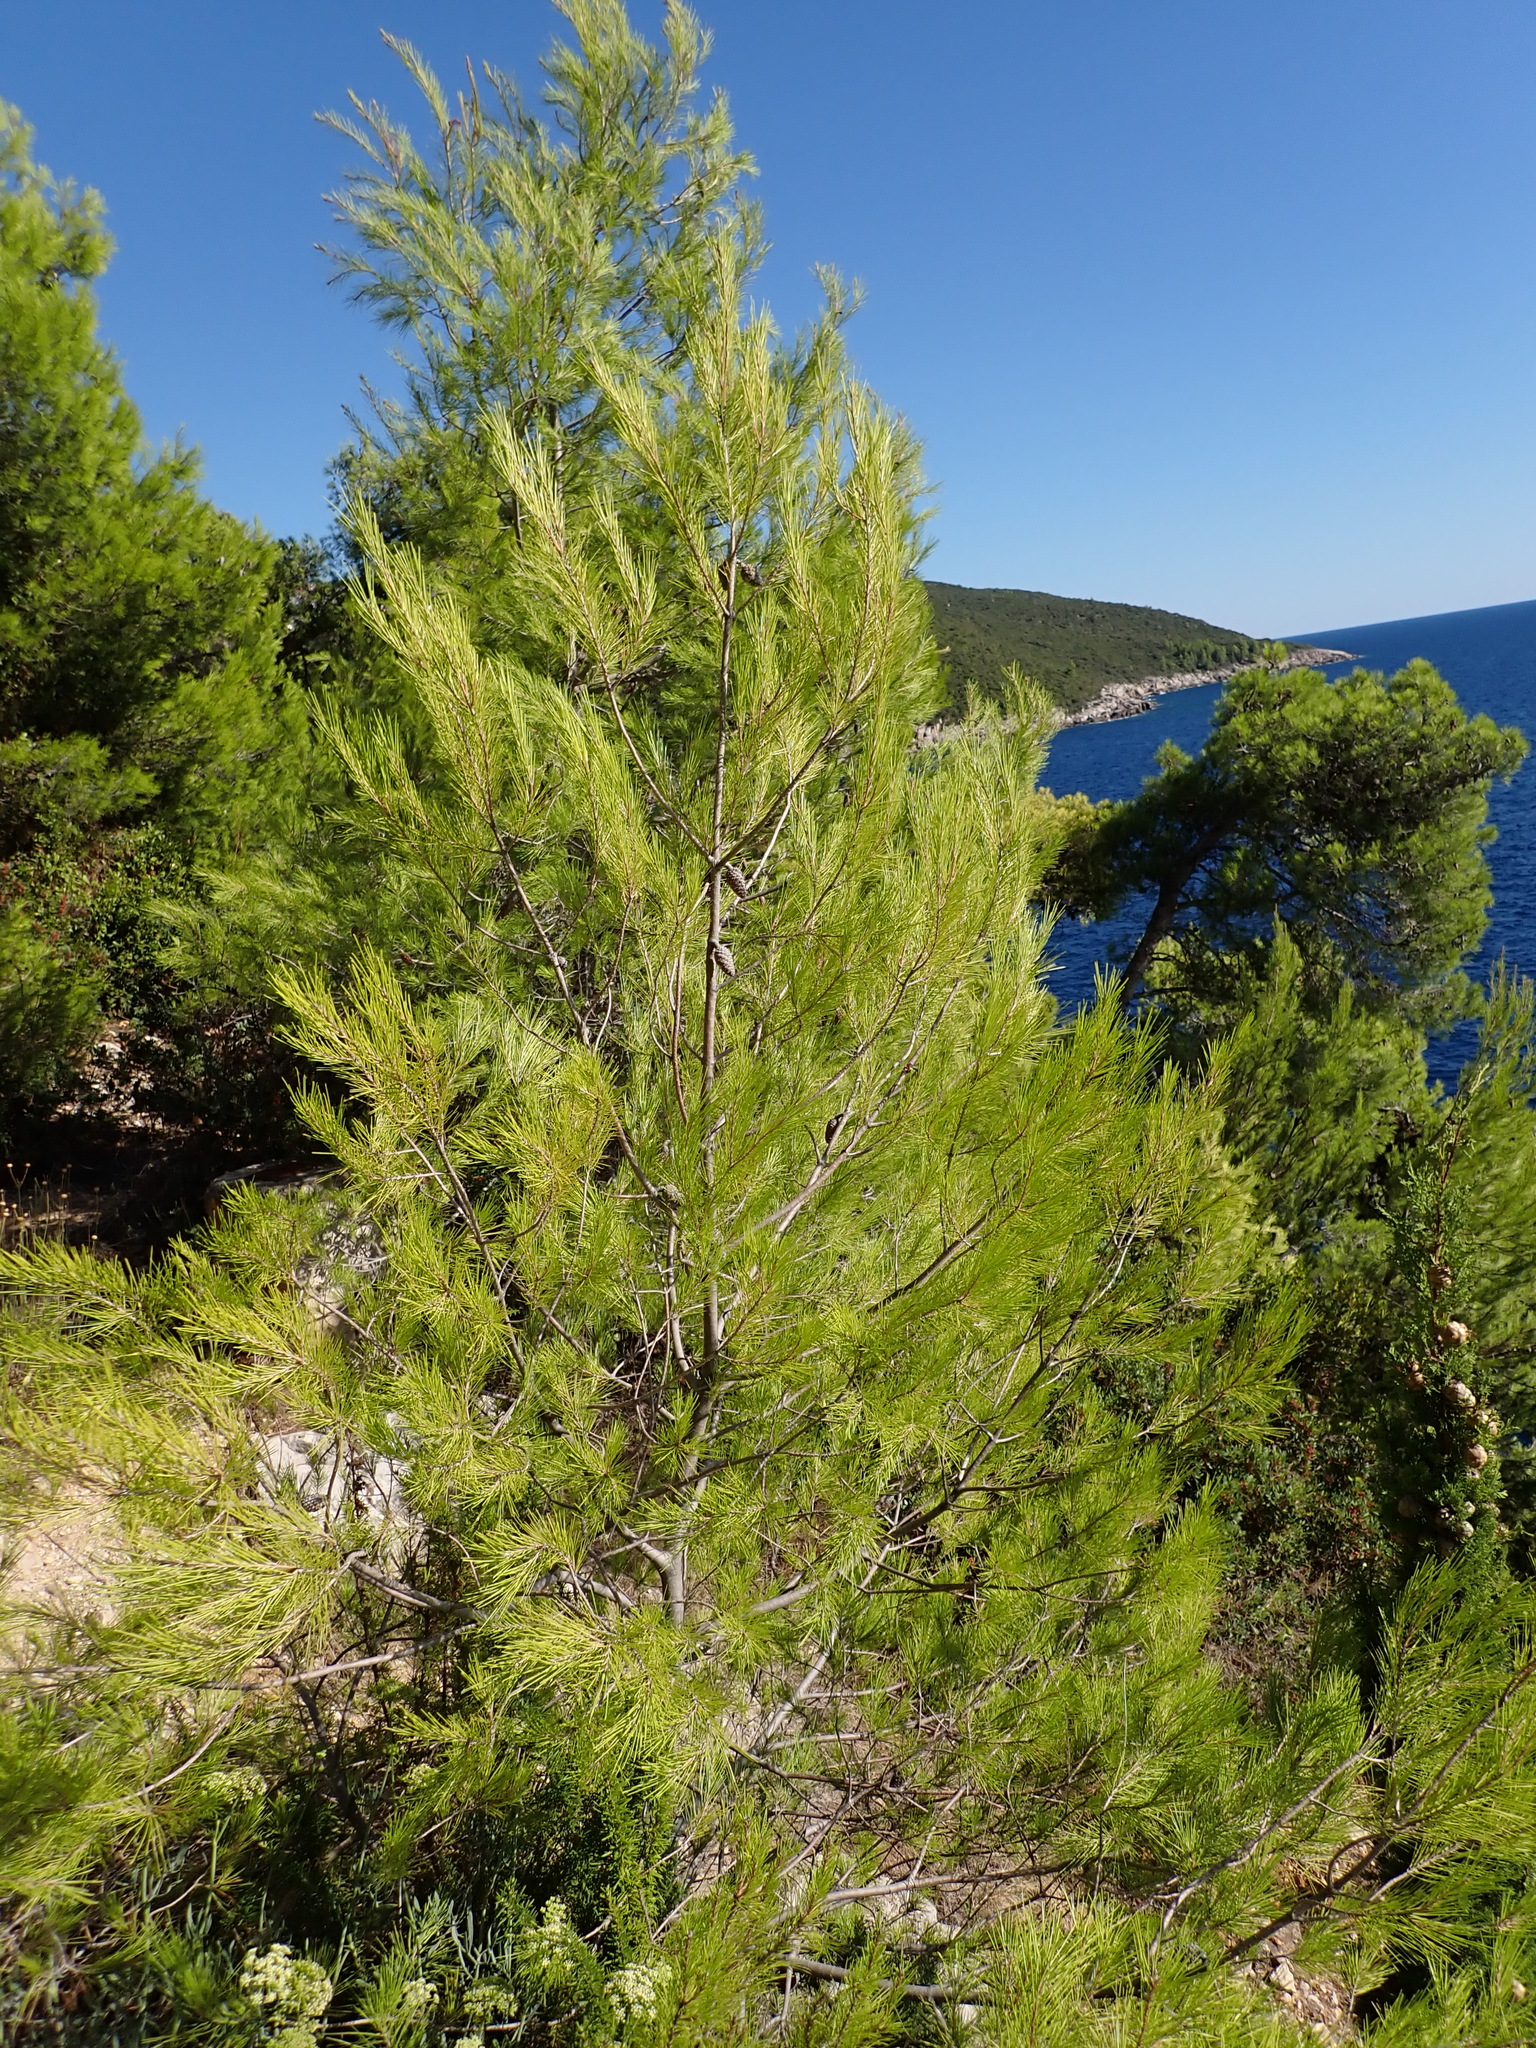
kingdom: Plantae
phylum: Tracheophyta
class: Pinopsida
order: Pinales
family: Pinaceae
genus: Pinus
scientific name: Pinus halepensis
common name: Aleppo pine
